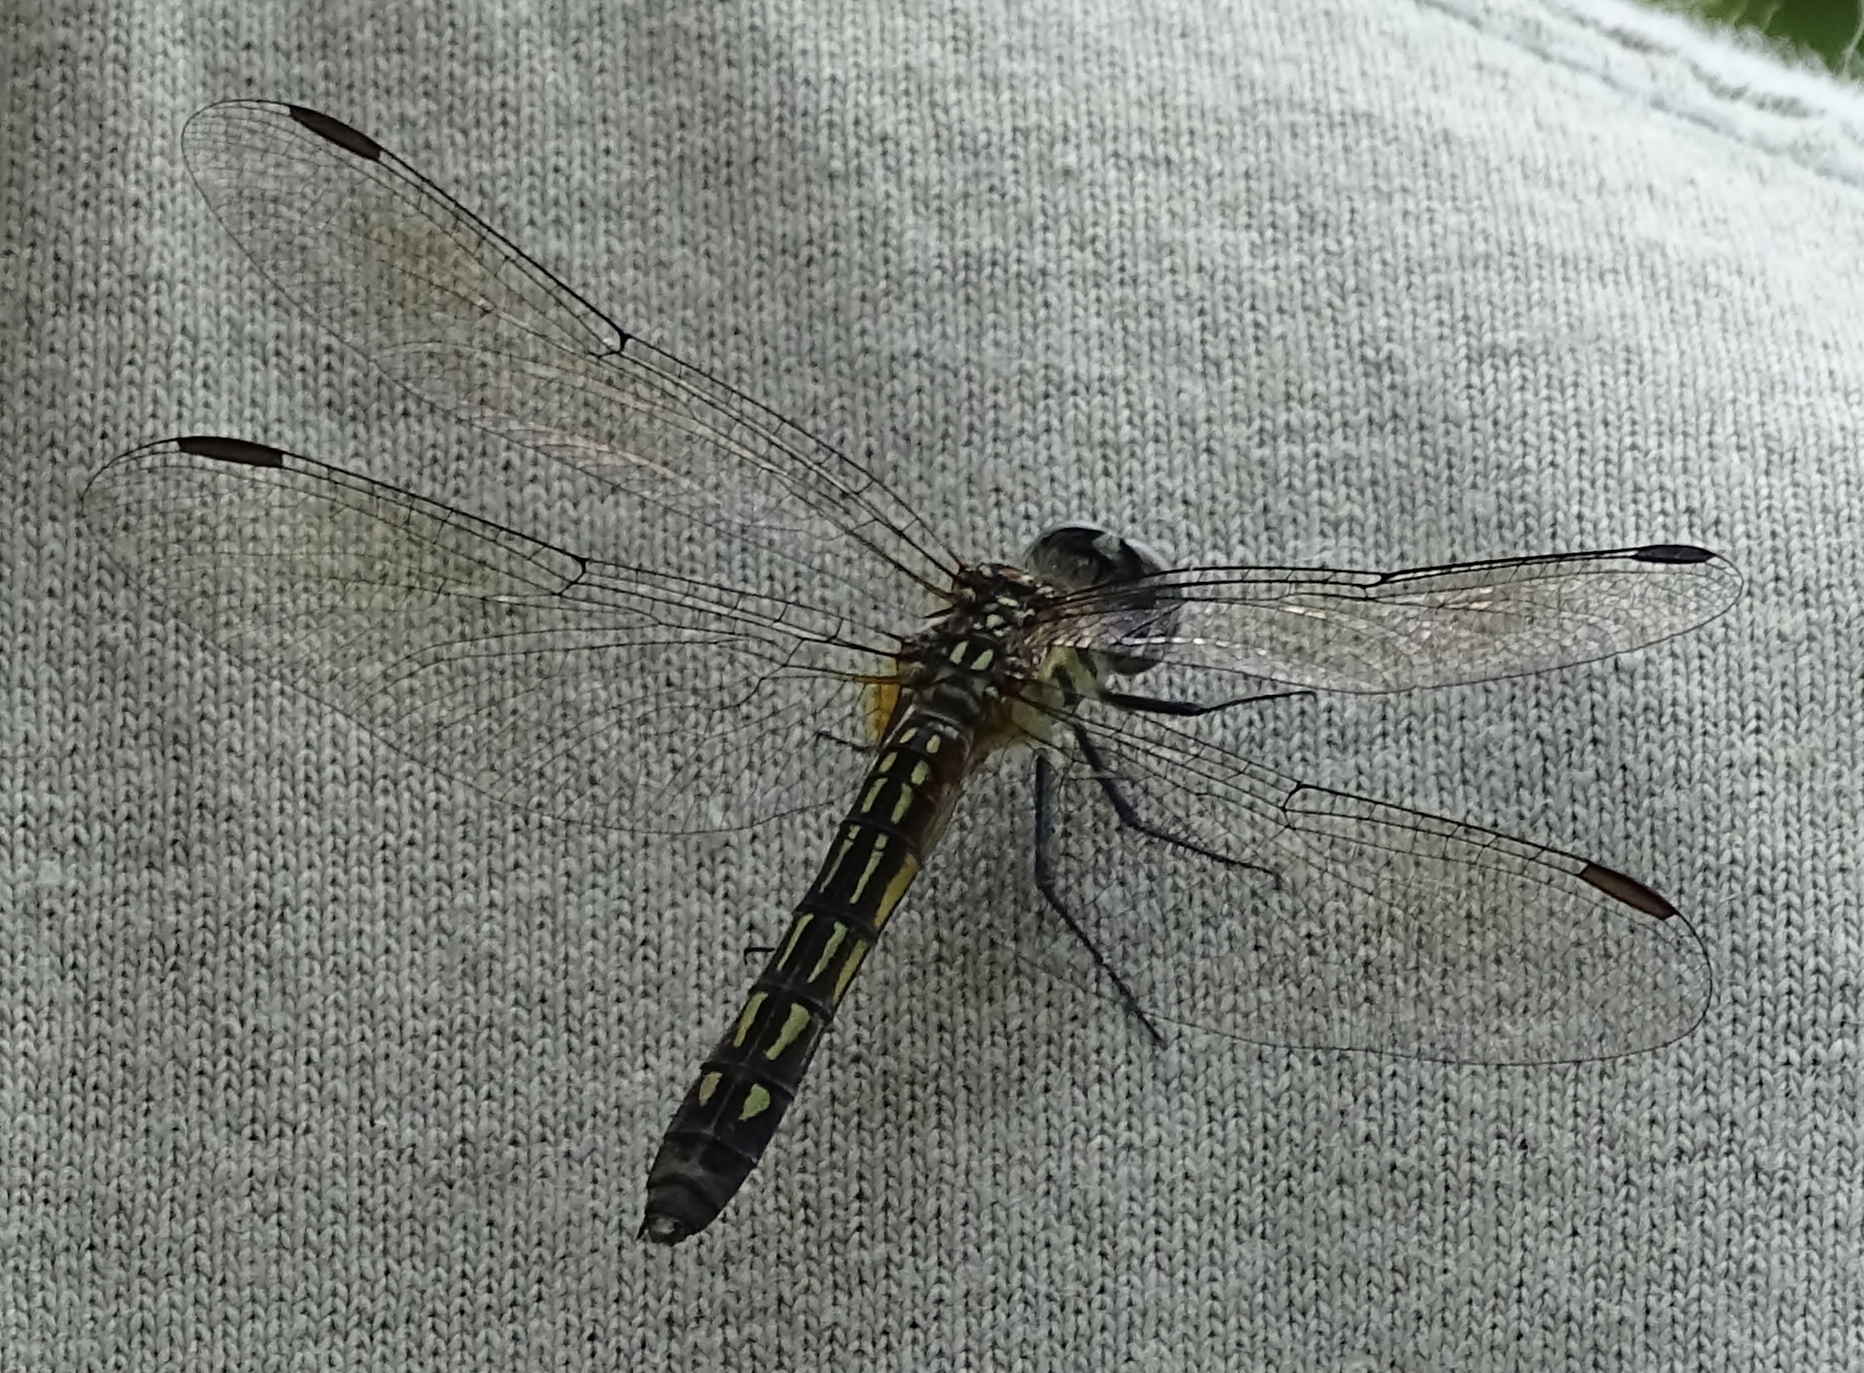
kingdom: Animalia
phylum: Arthropoda
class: Insecta
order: Odonata
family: Libellulidae
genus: Pachydiplax
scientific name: Pachydiplax longipennis
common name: Blue dasher
